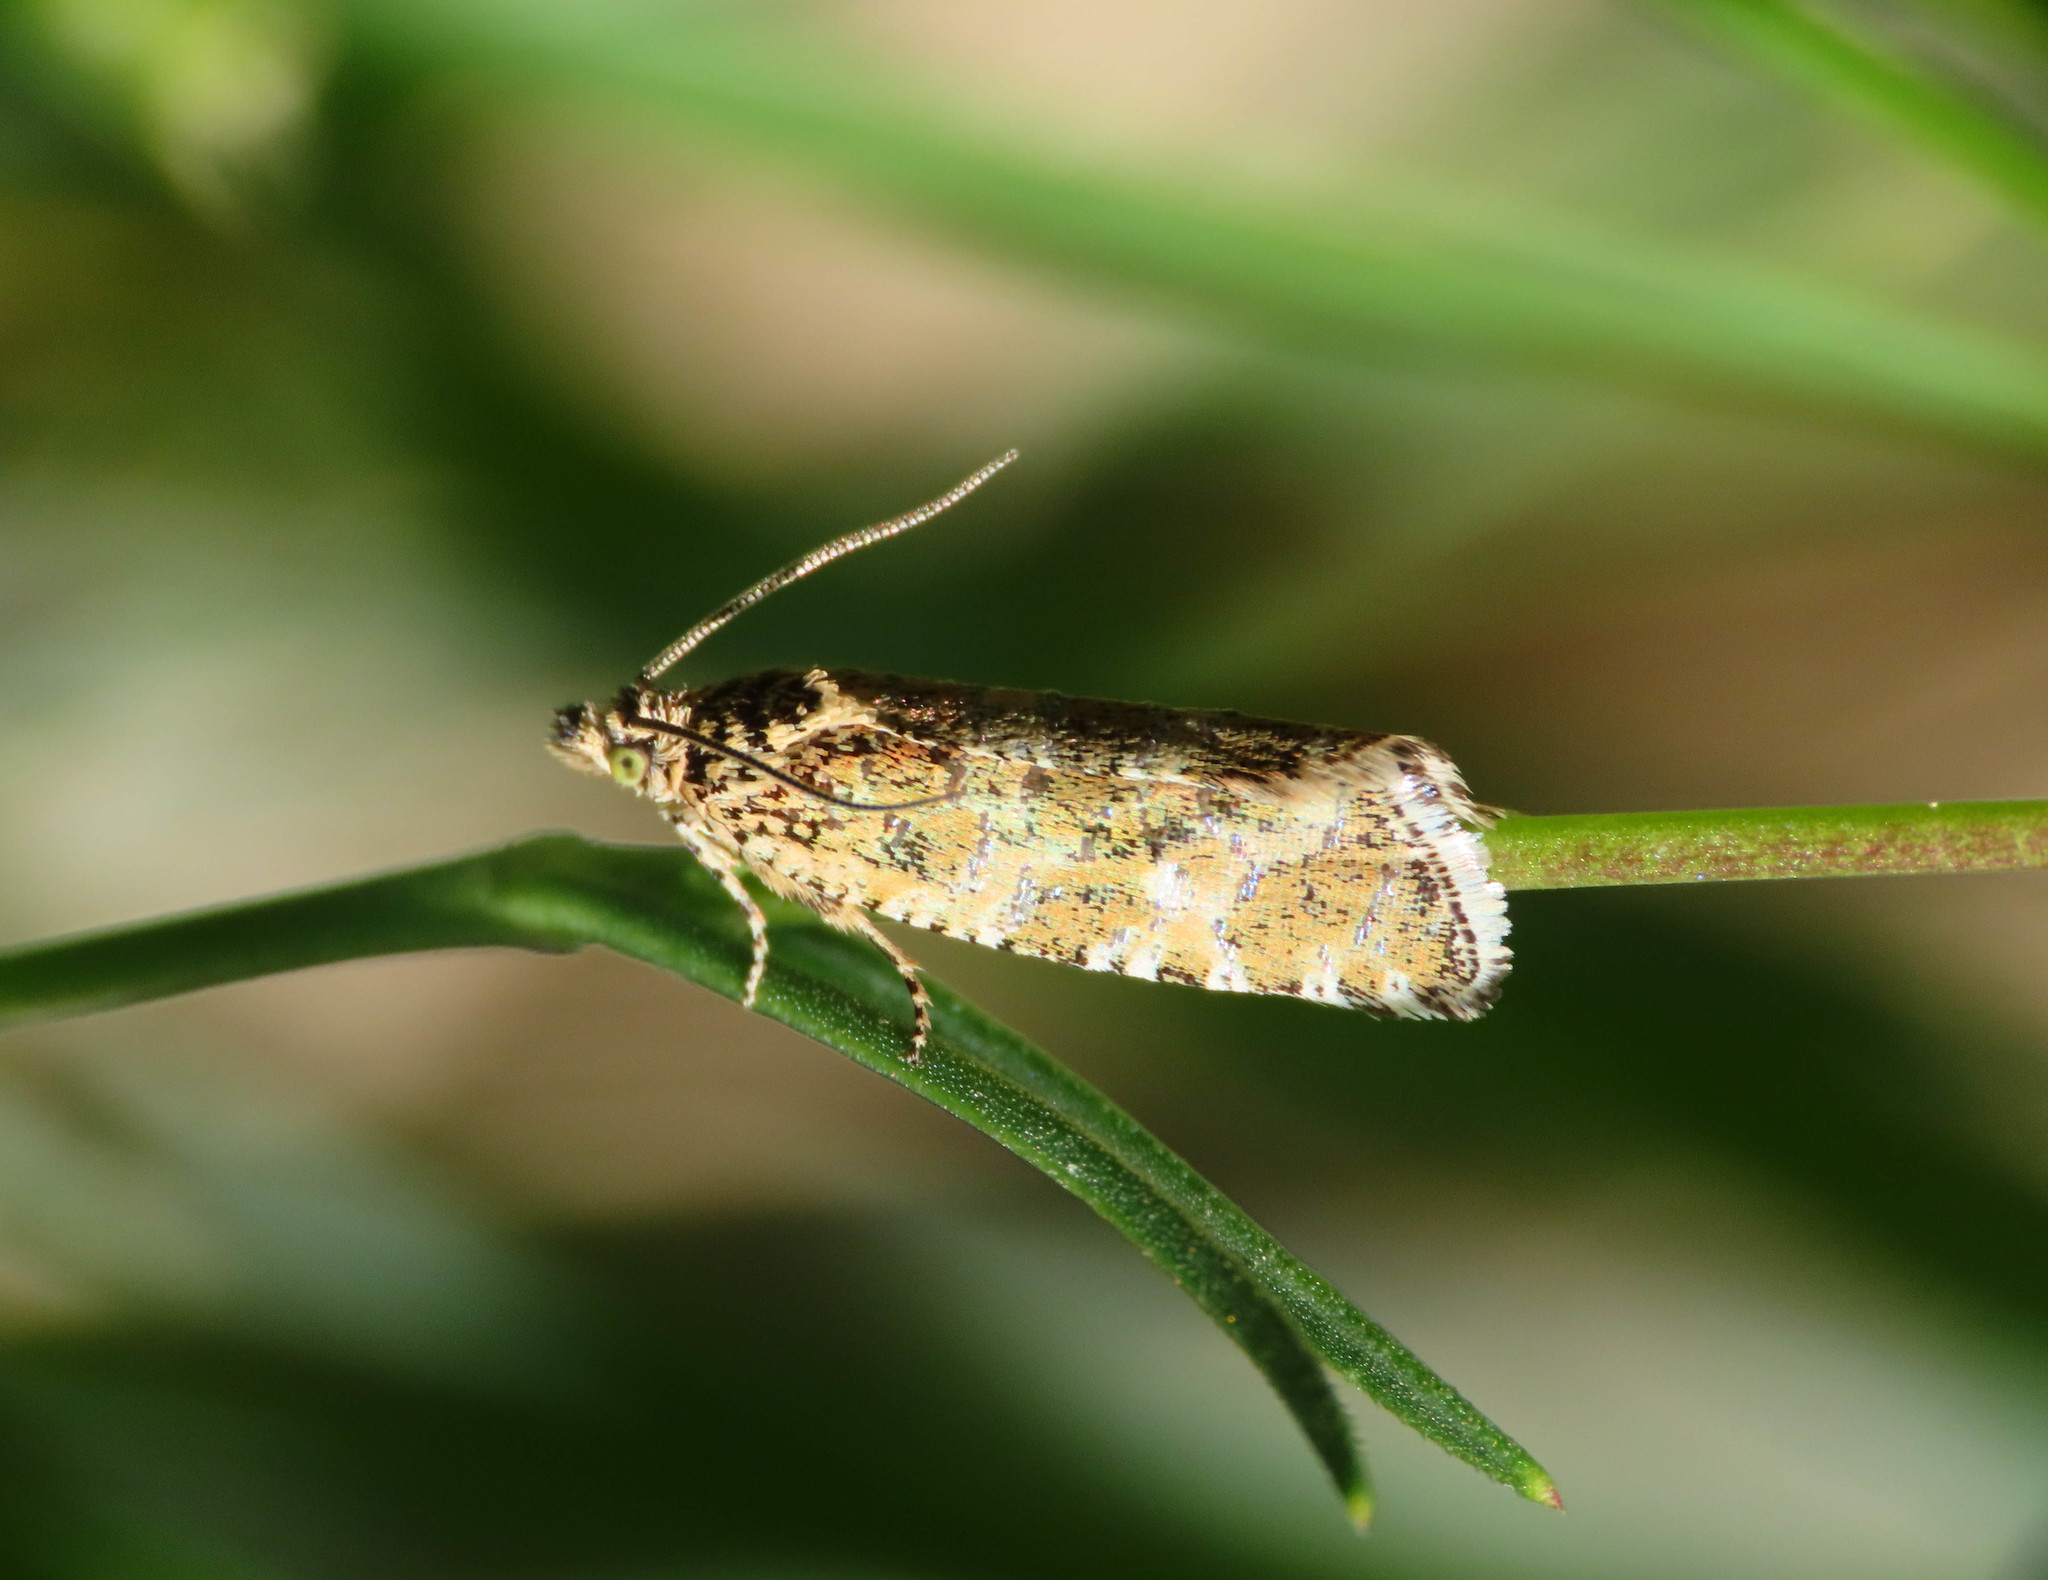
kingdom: Animalia
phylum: Arthropoda
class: Insecta
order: Lepidoptera
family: Tortricidae
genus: Olethreutes
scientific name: Olethreutes stibiana
